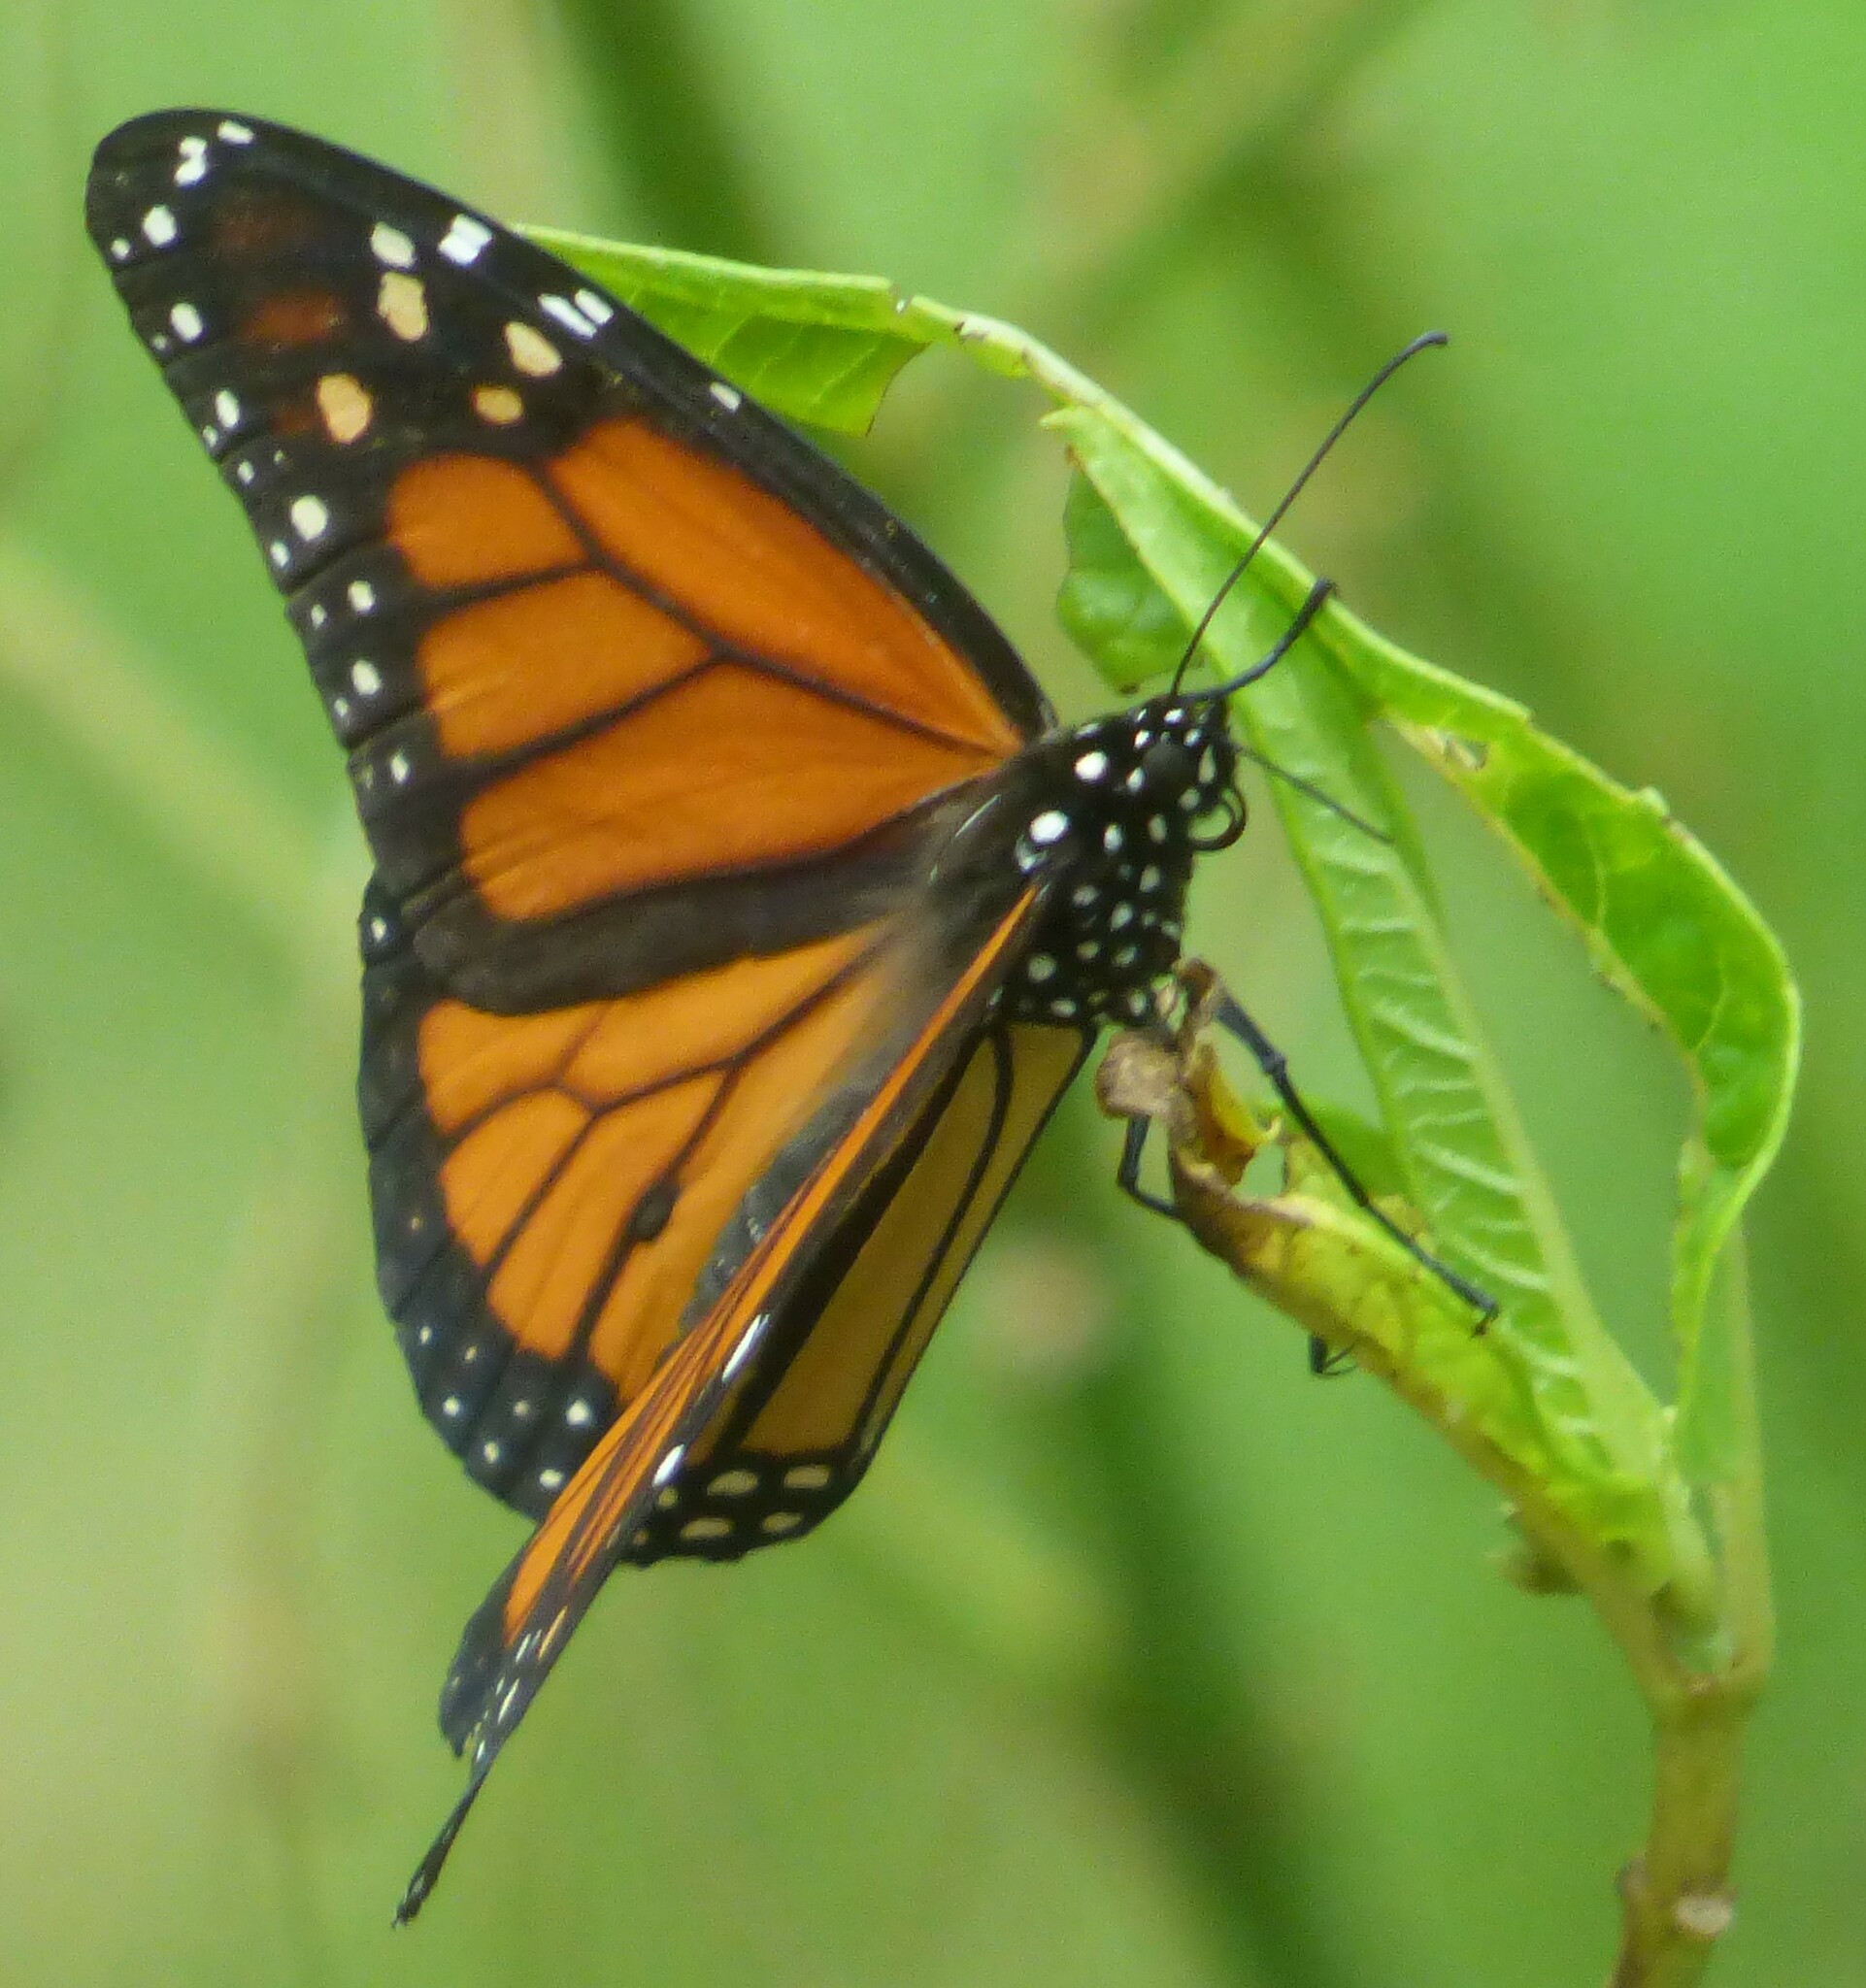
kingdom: Animalia
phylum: Arthropoda
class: Insecta
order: Lepidoptera
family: Nymphalidae
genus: Danaus
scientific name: Danaus plexippus
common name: Monarch
